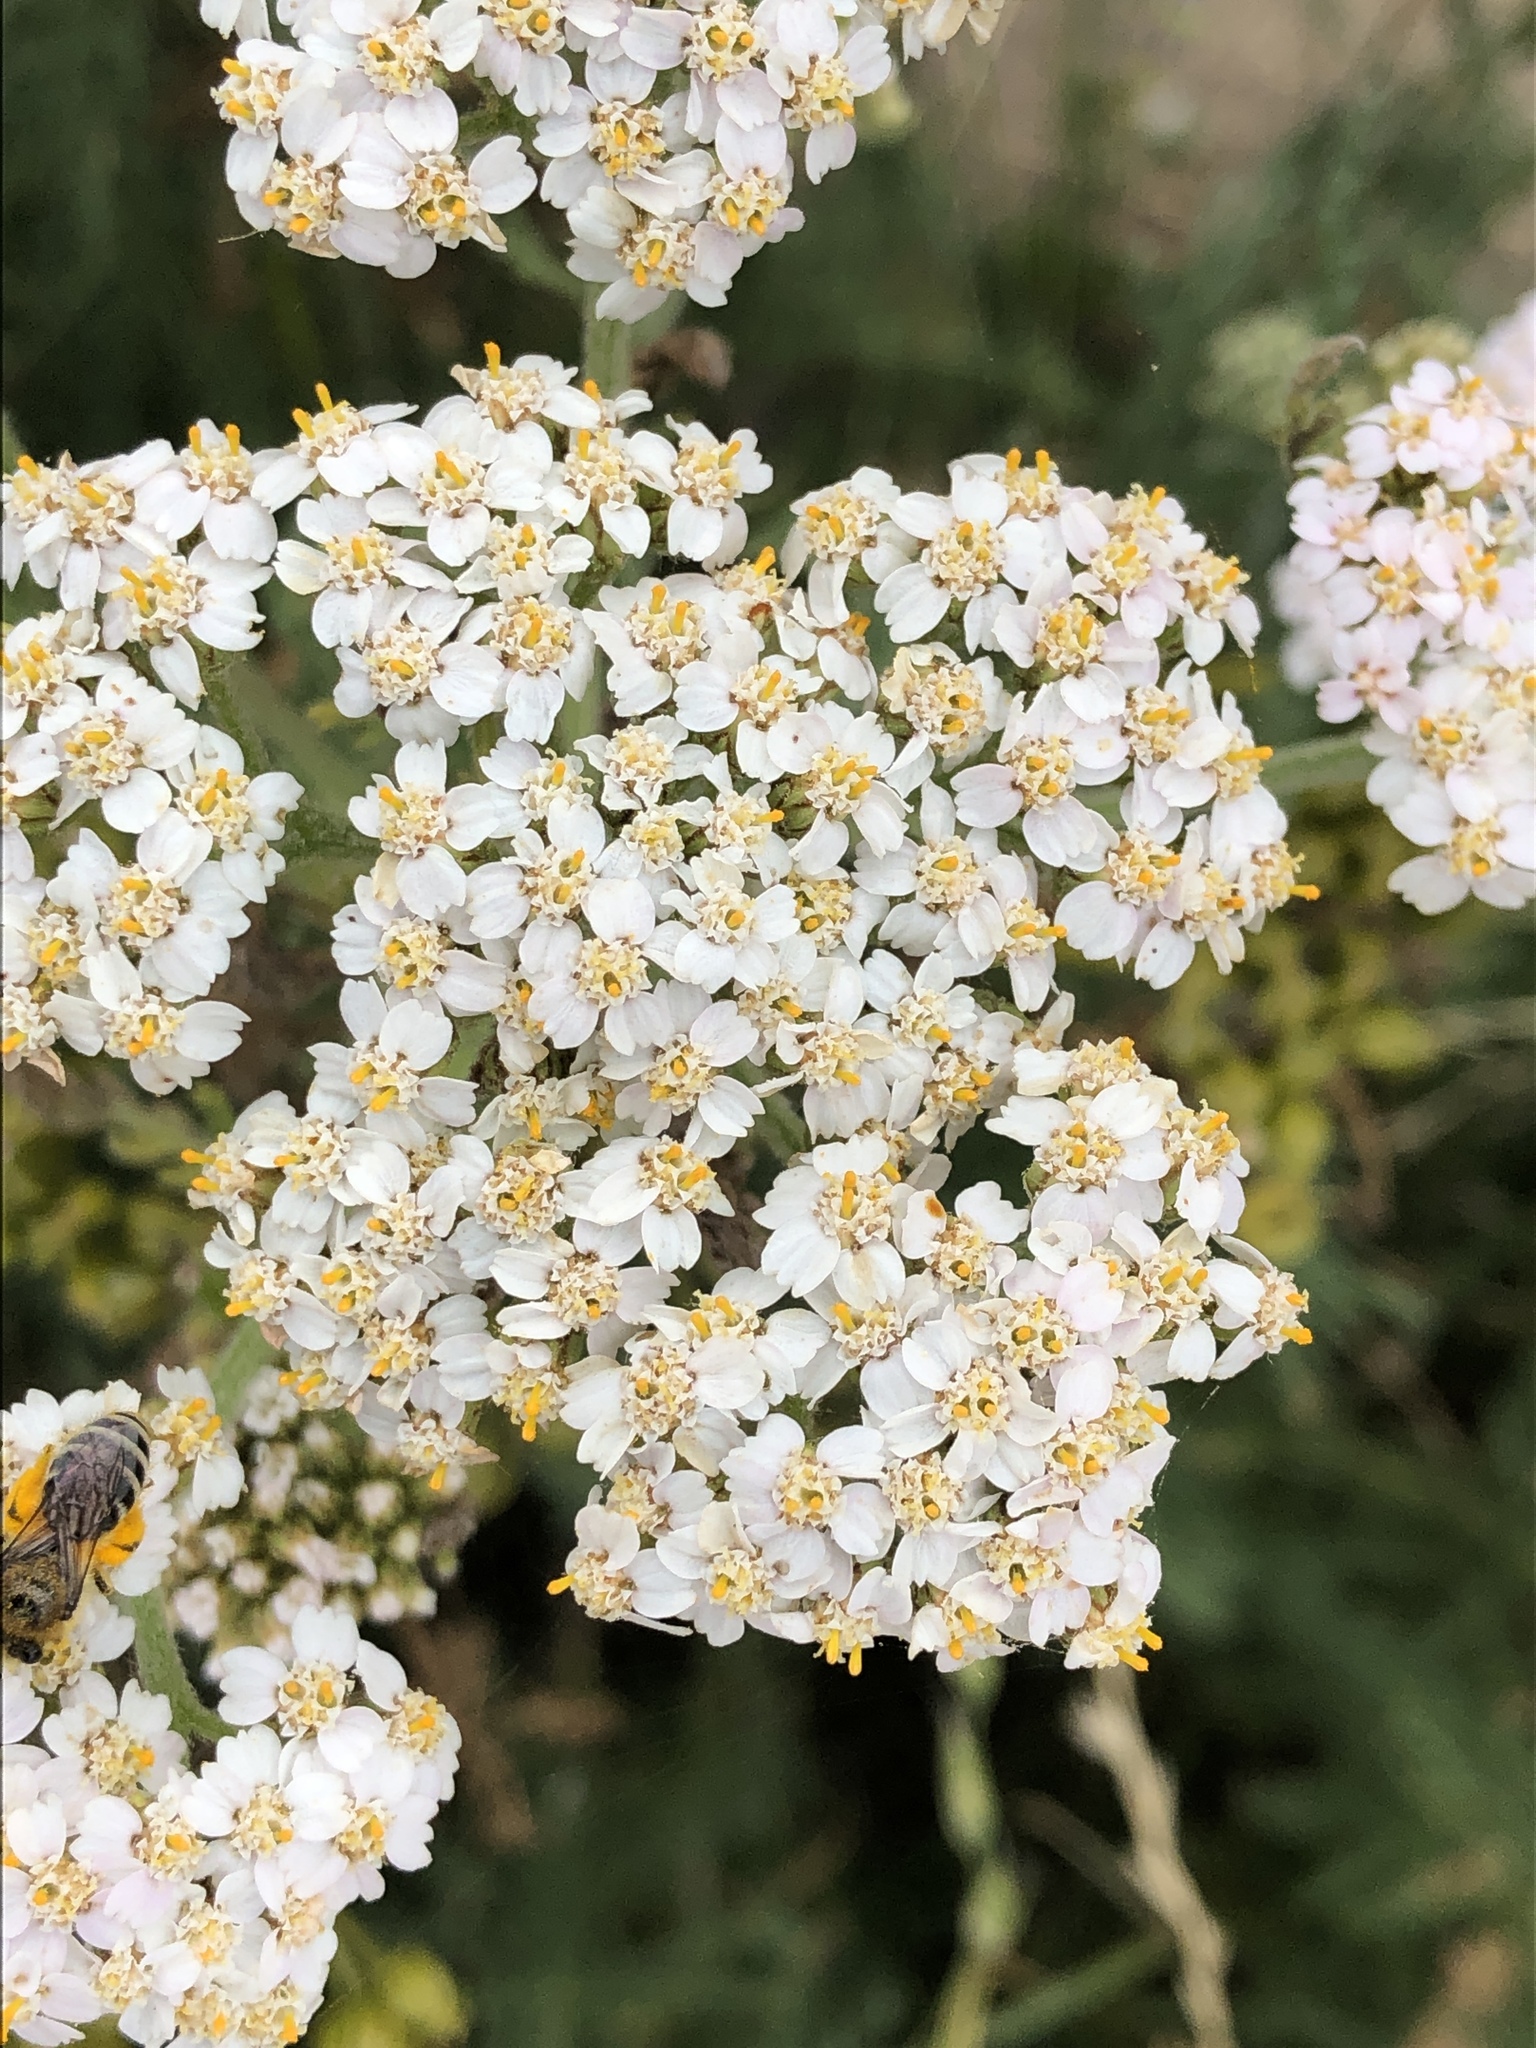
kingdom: Plantae
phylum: Tracheophyta
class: Magnoliopsida
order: Asterales
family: Asteraceae
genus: Achillea
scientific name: Achillea millefolium
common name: Yarrow
